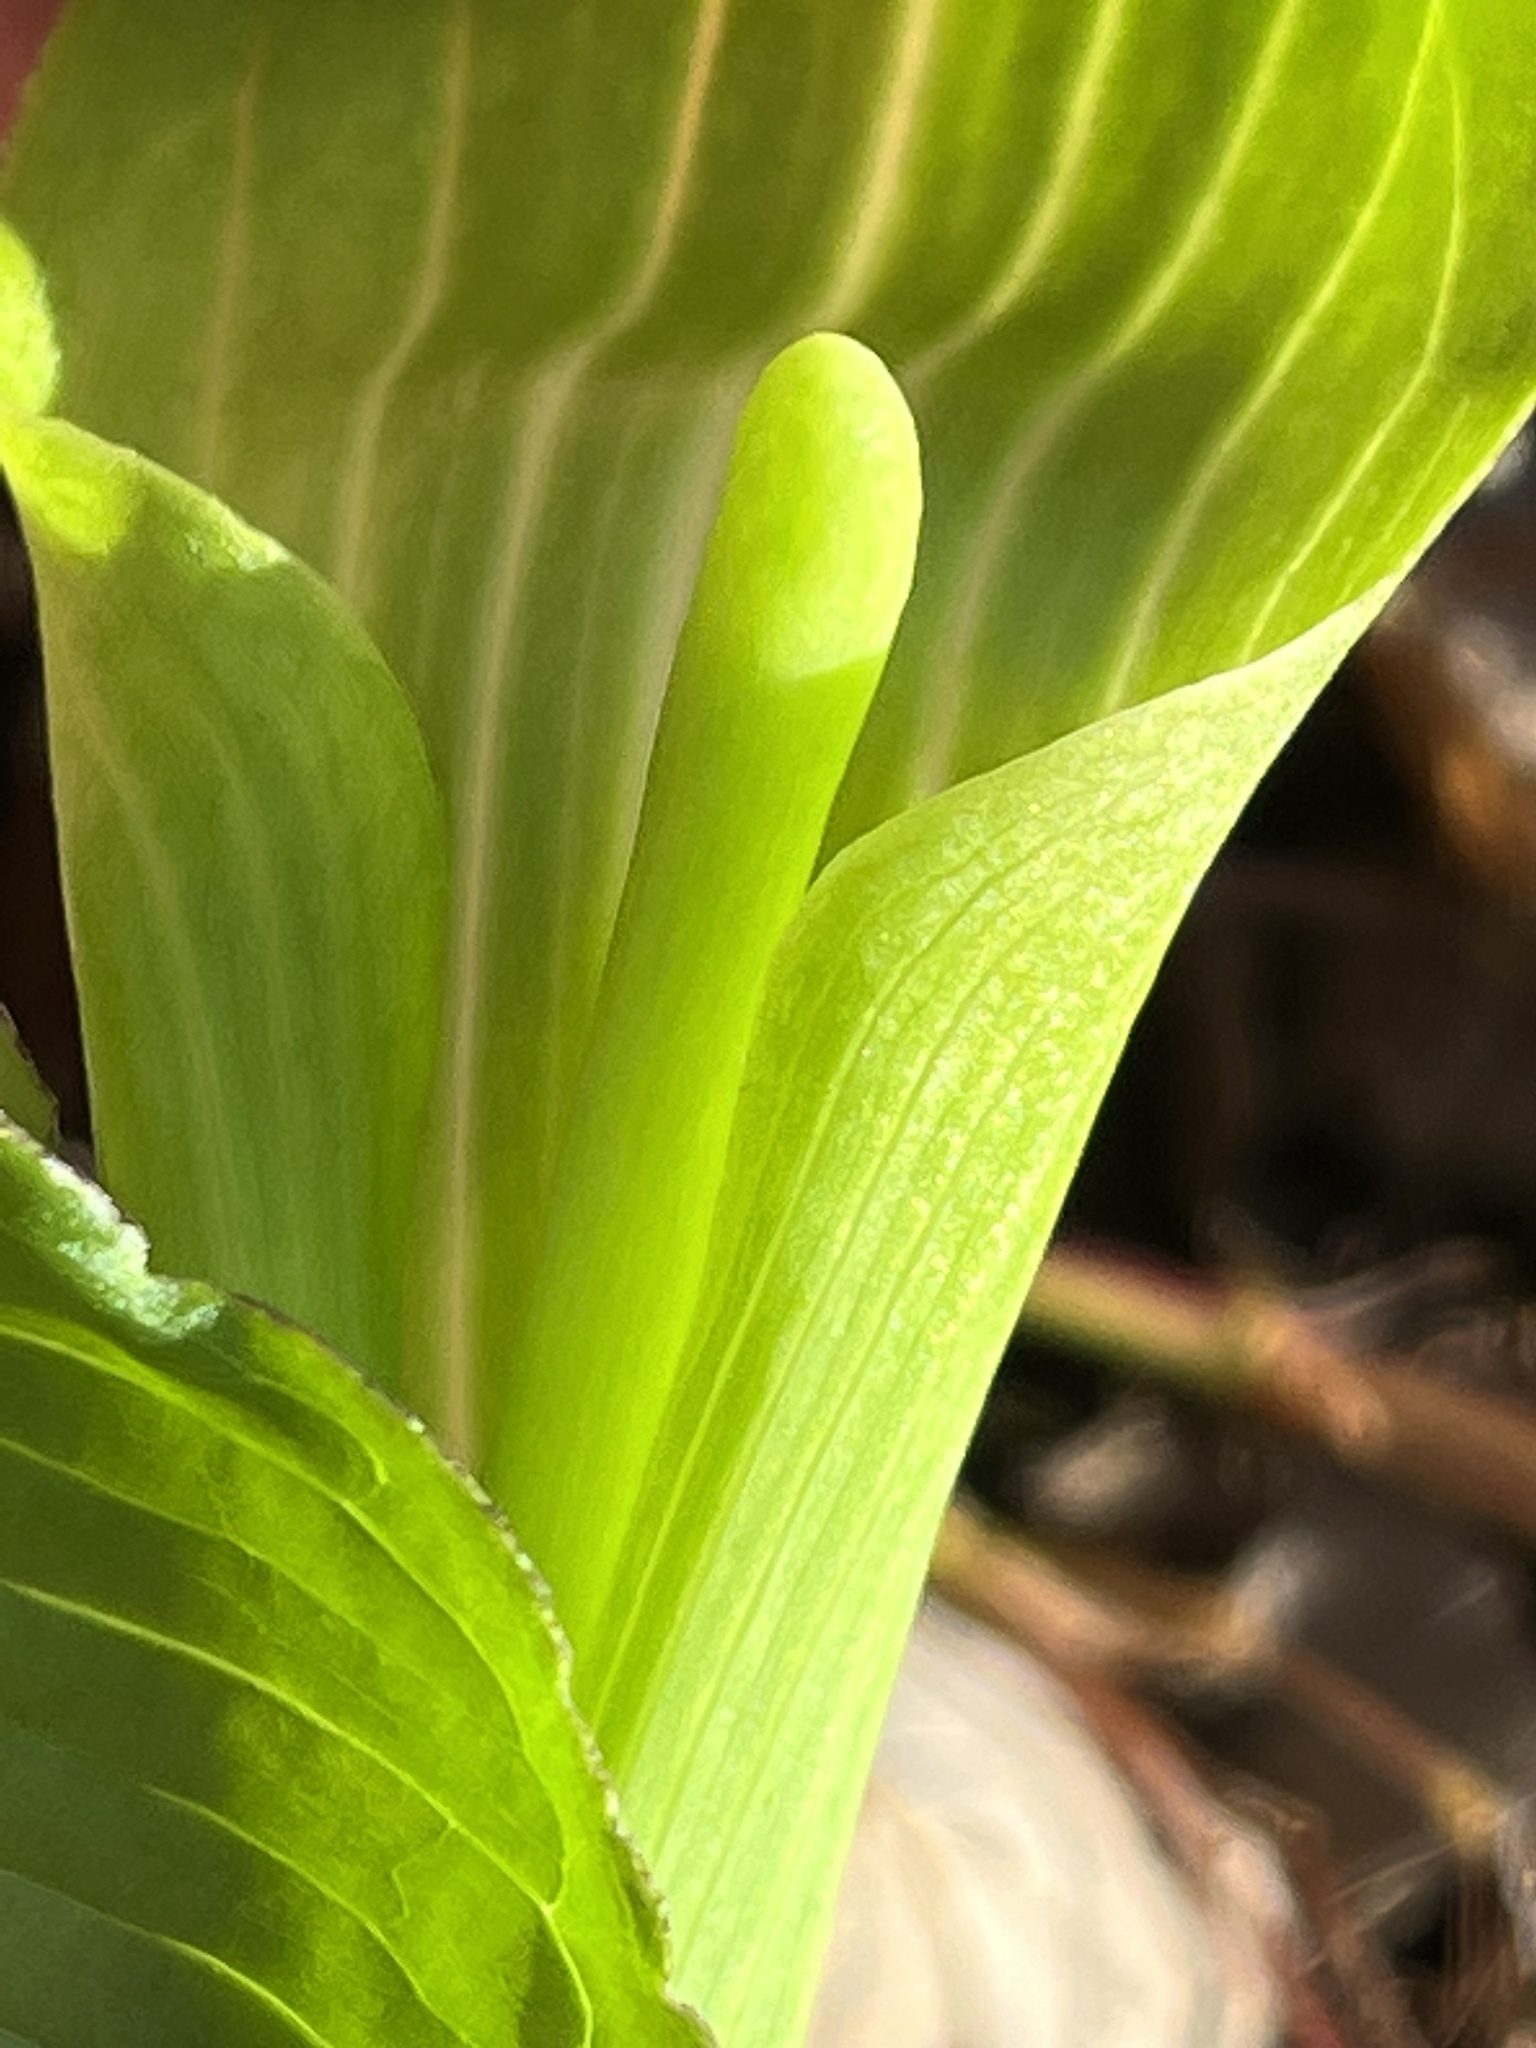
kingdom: Plantae
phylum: Tracheophyta
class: Liliopsida
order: Alismatales
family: Araceae
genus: Arisaema
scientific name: Arisaema triphyllum
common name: Jack-in-the-pulpit
